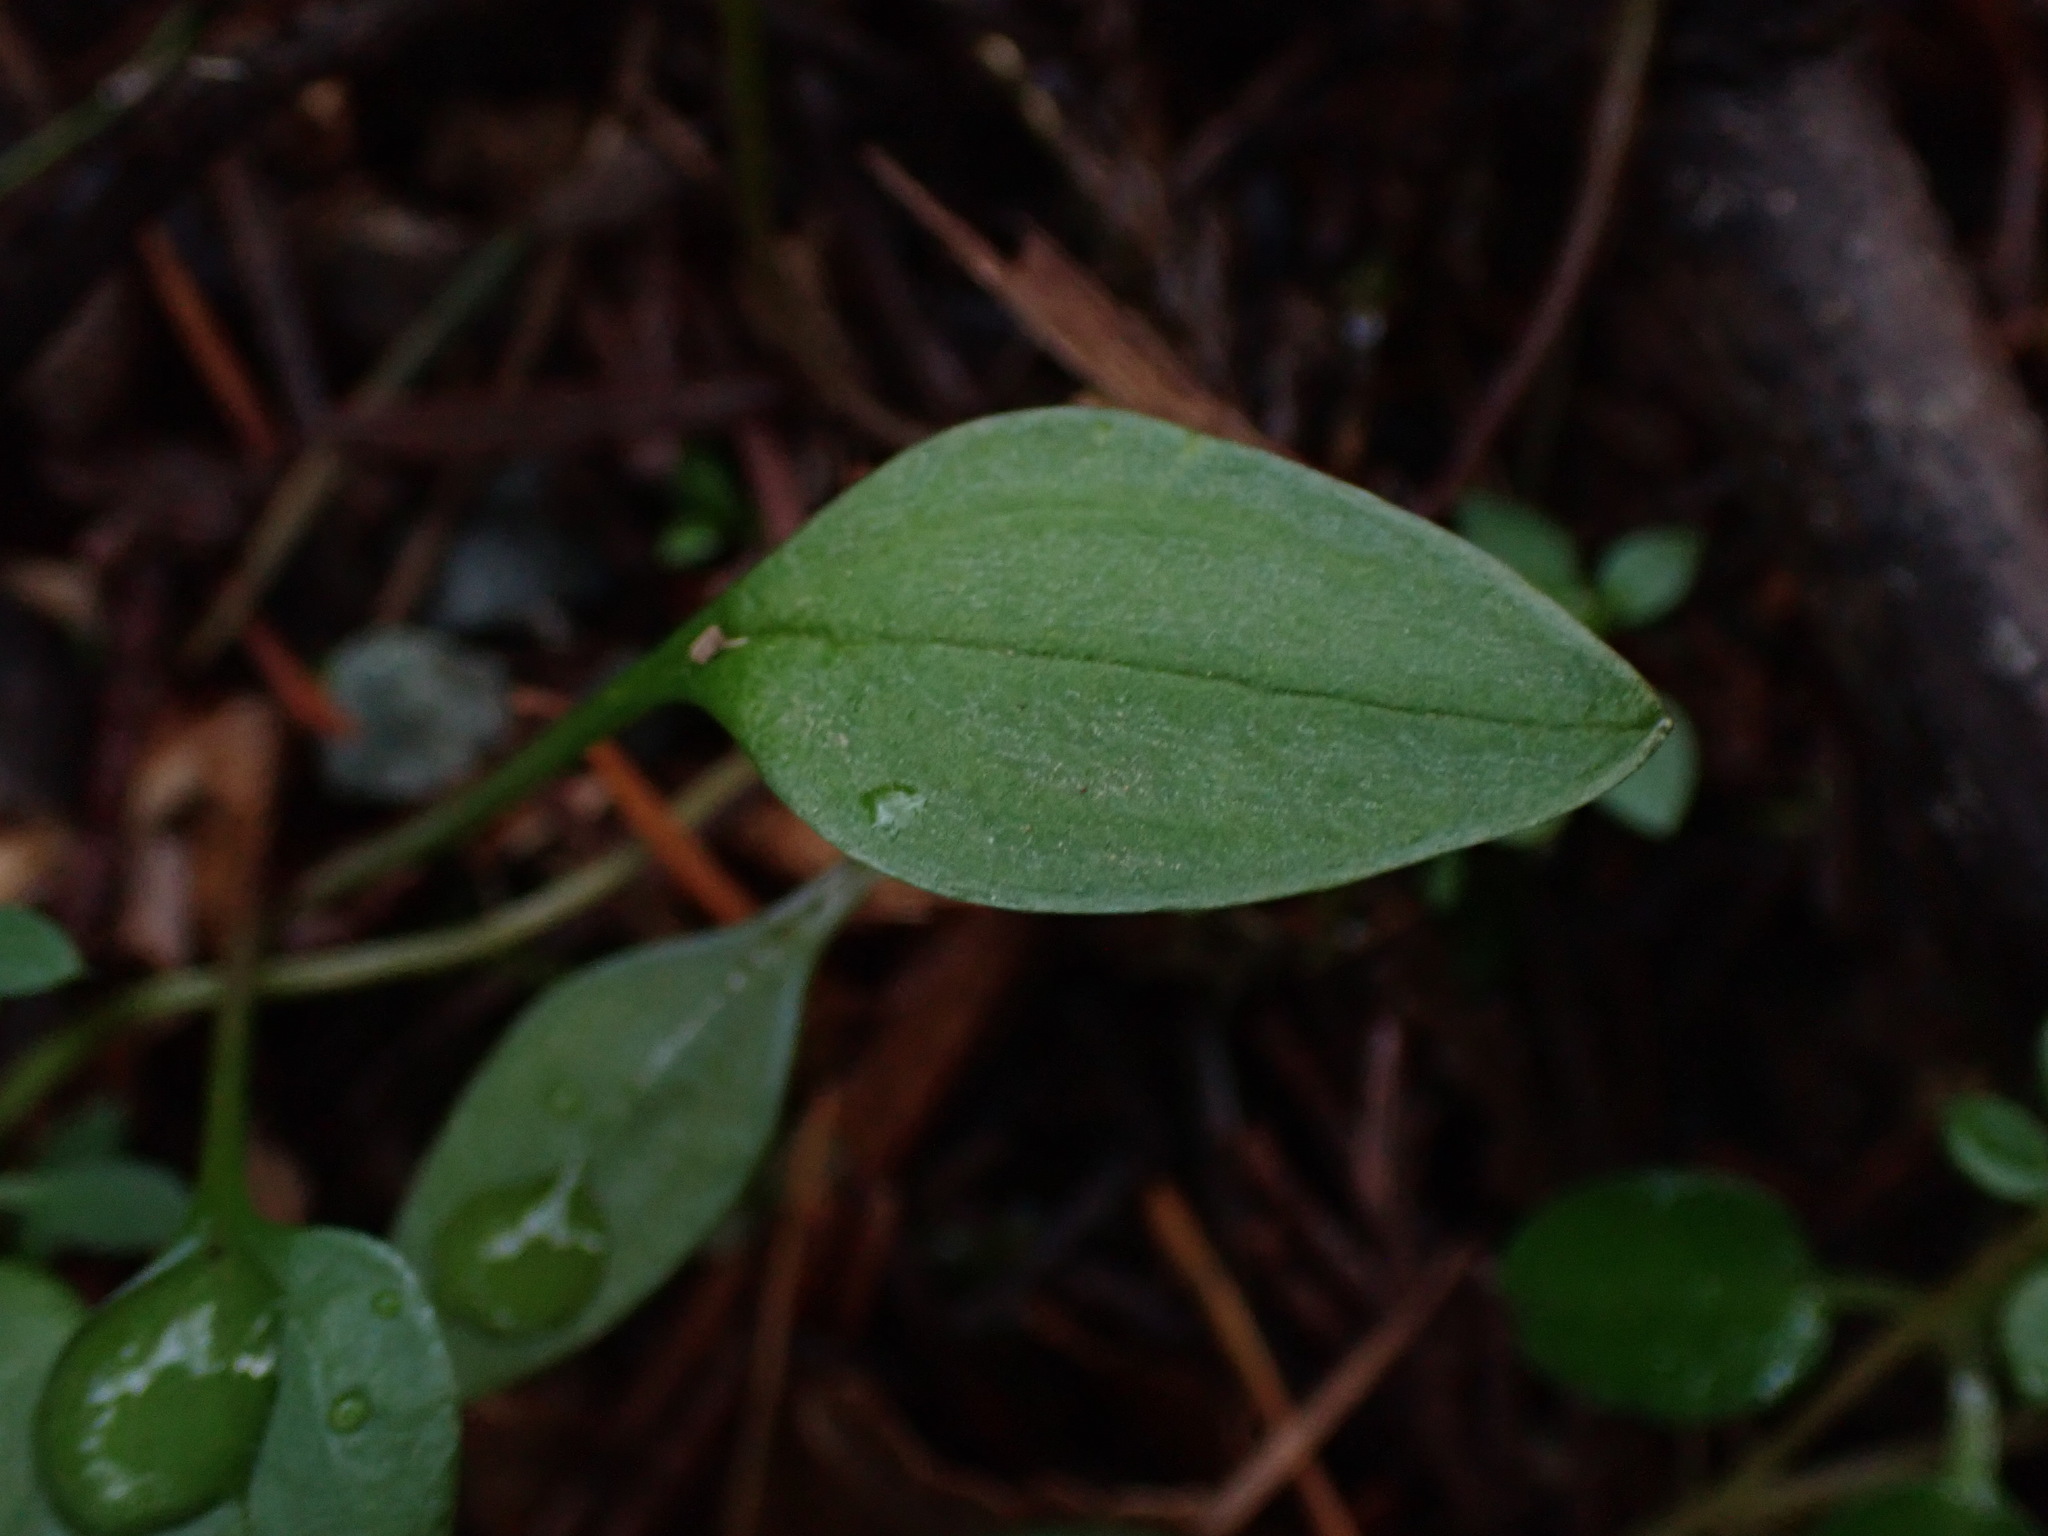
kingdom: Plantae
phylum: Tracheophyta
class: Magnoliopsida
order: Caryophyllales
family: Montiaceae
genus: Claytonia
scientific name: Claytonia sibirica
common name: Pink purslane
